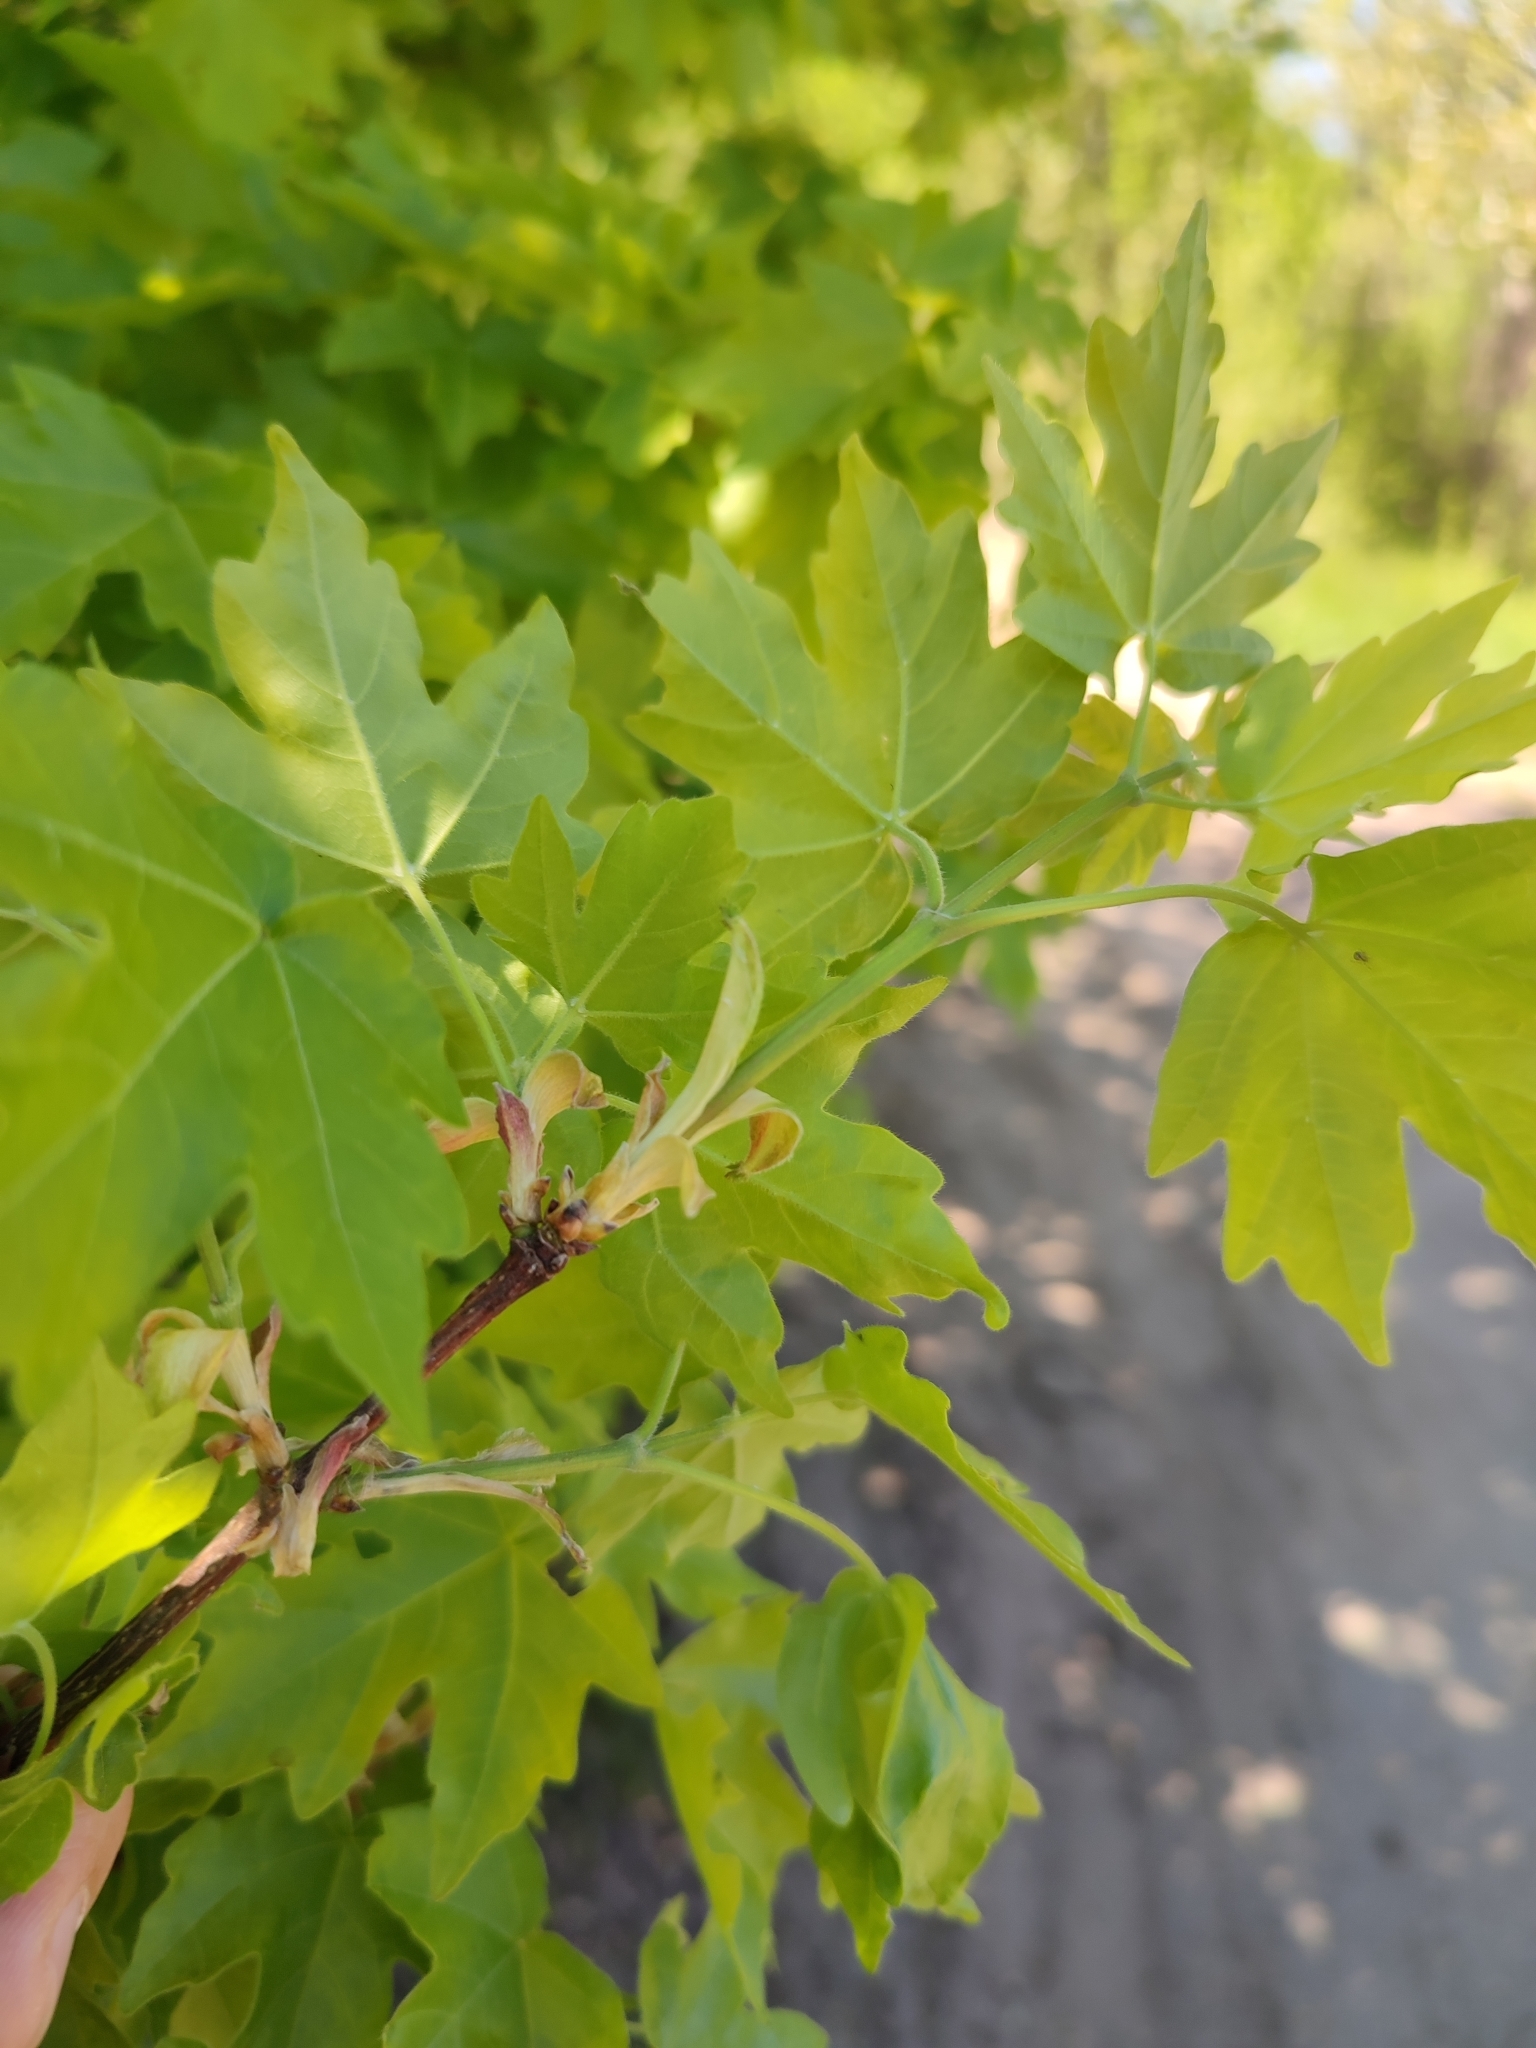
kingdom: Plantae
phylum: Tracheophyta
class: Magnoliopsida
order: Sapindales
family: Sapindaceae
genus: Acer
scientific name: Acer campestre
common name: Field maple
